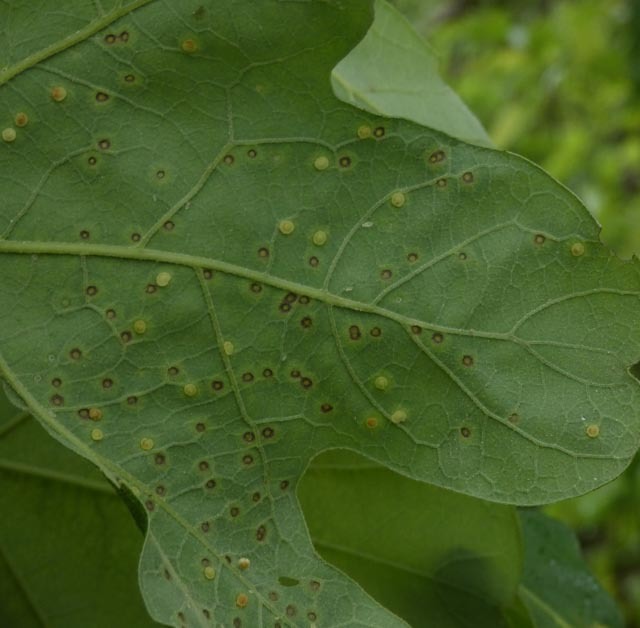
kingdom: Animalia
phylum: Arthropoda
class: Insecta
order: Hymenoptera
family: Cynipidae
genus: Neuroterus
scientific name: Neuroterus
